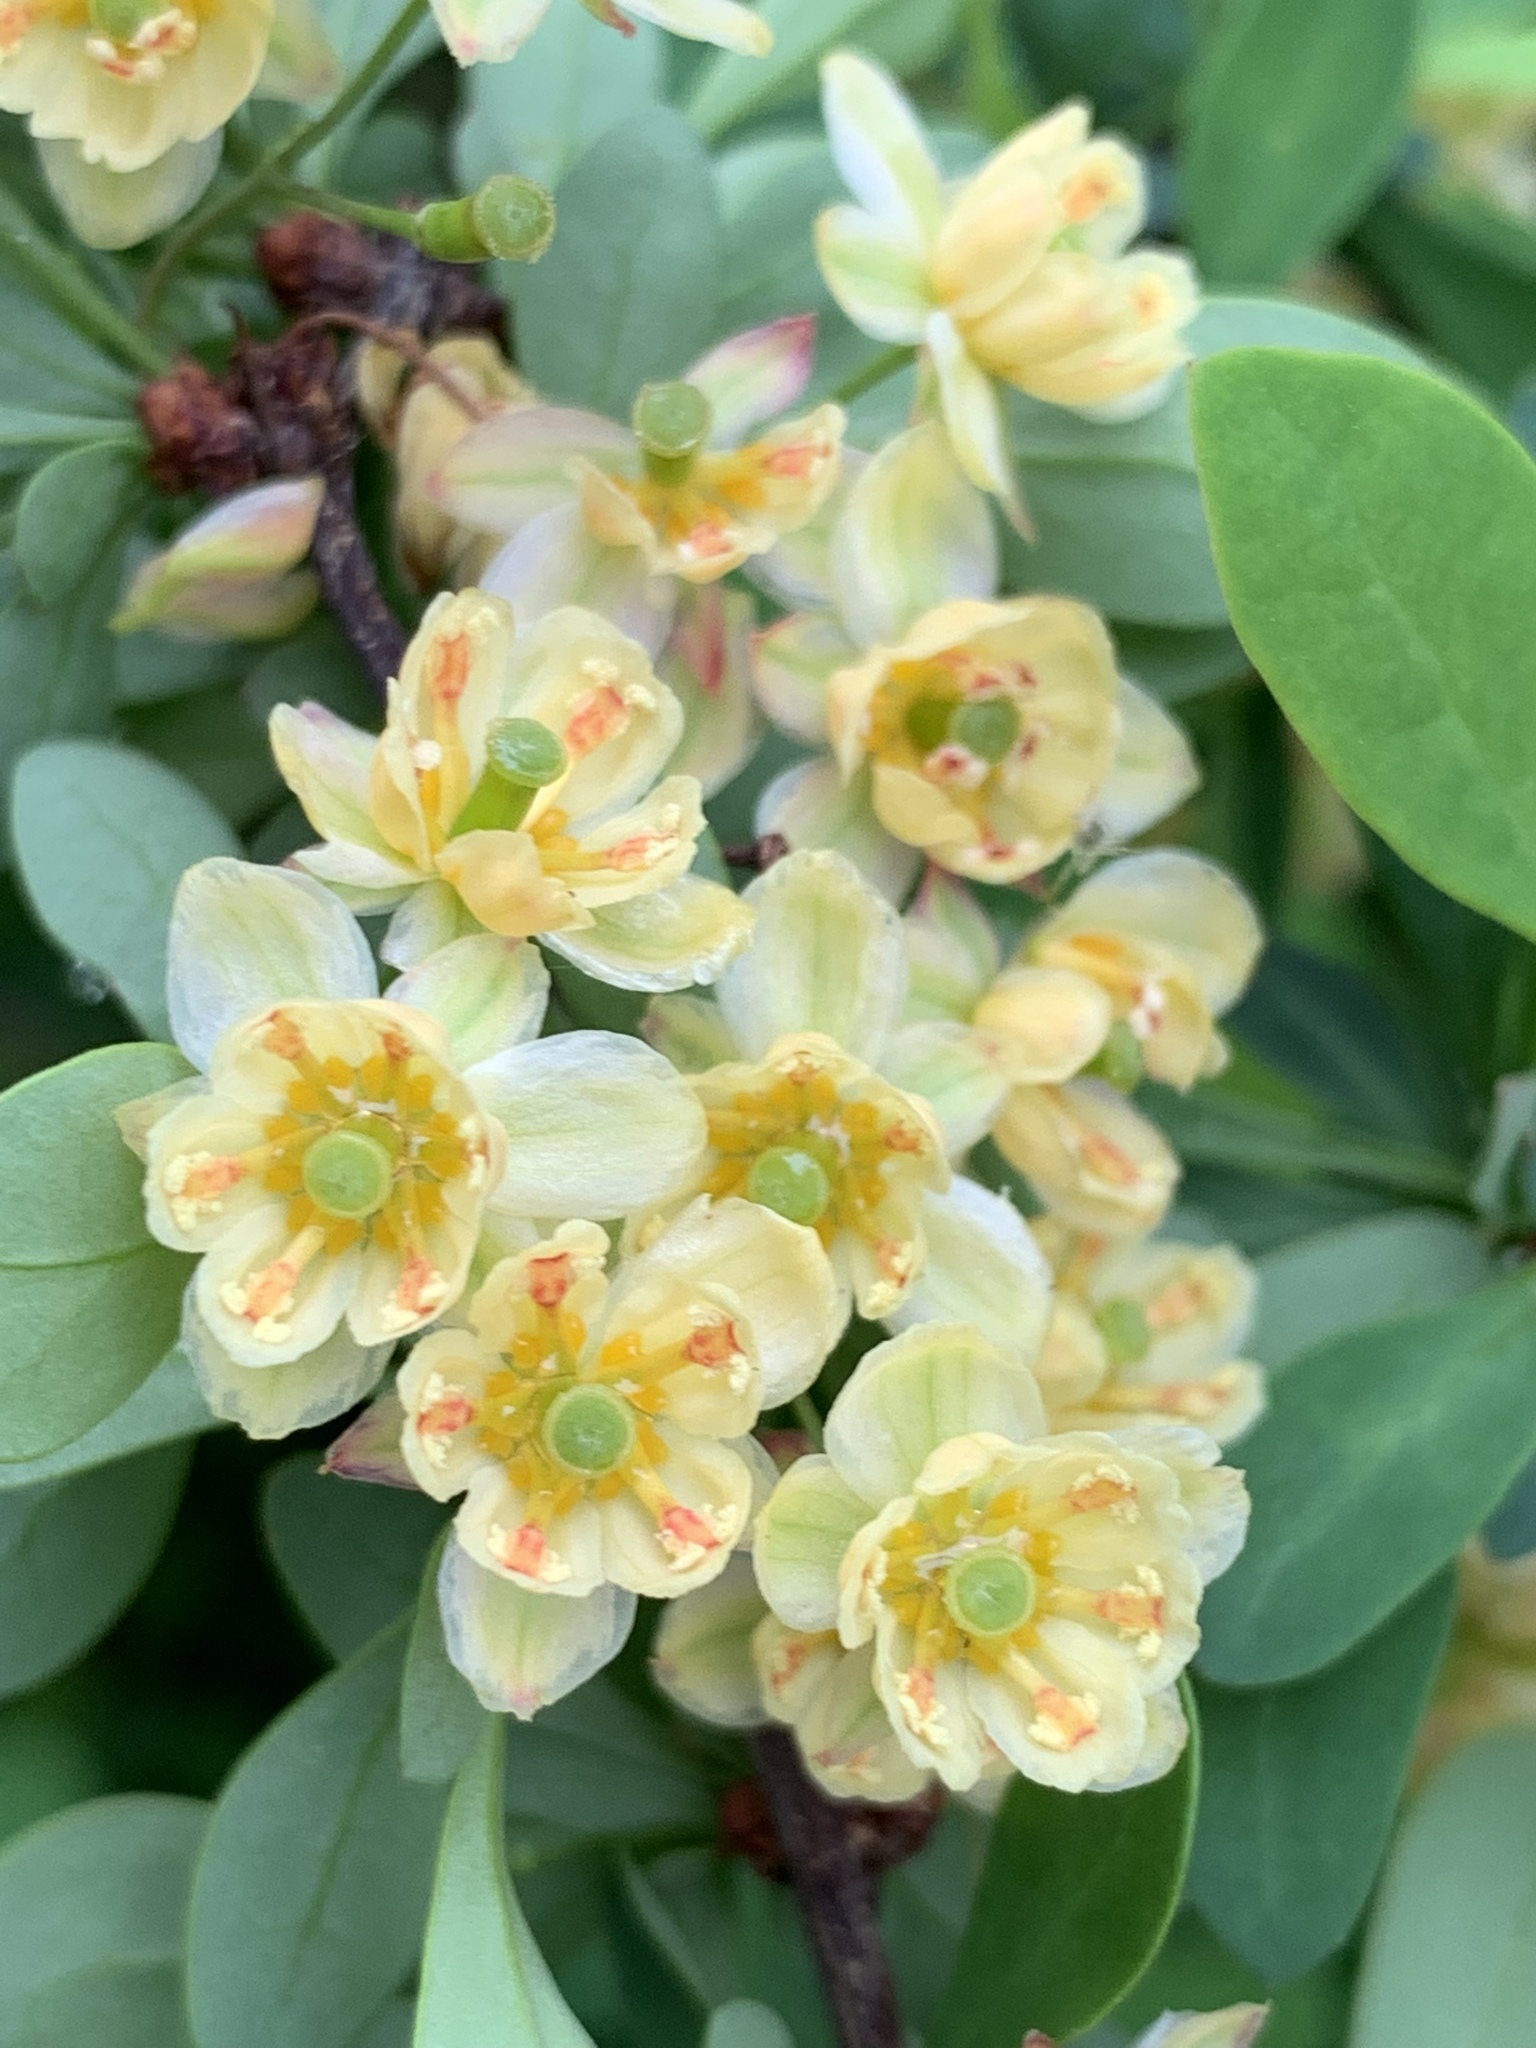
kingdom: Plantae
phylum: Tracheophyta
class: Magnoliopsida
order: Ranunculales
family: Berberidaceae
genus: Berberis
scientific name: Berberis thunbergii
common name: Japanese barberry
